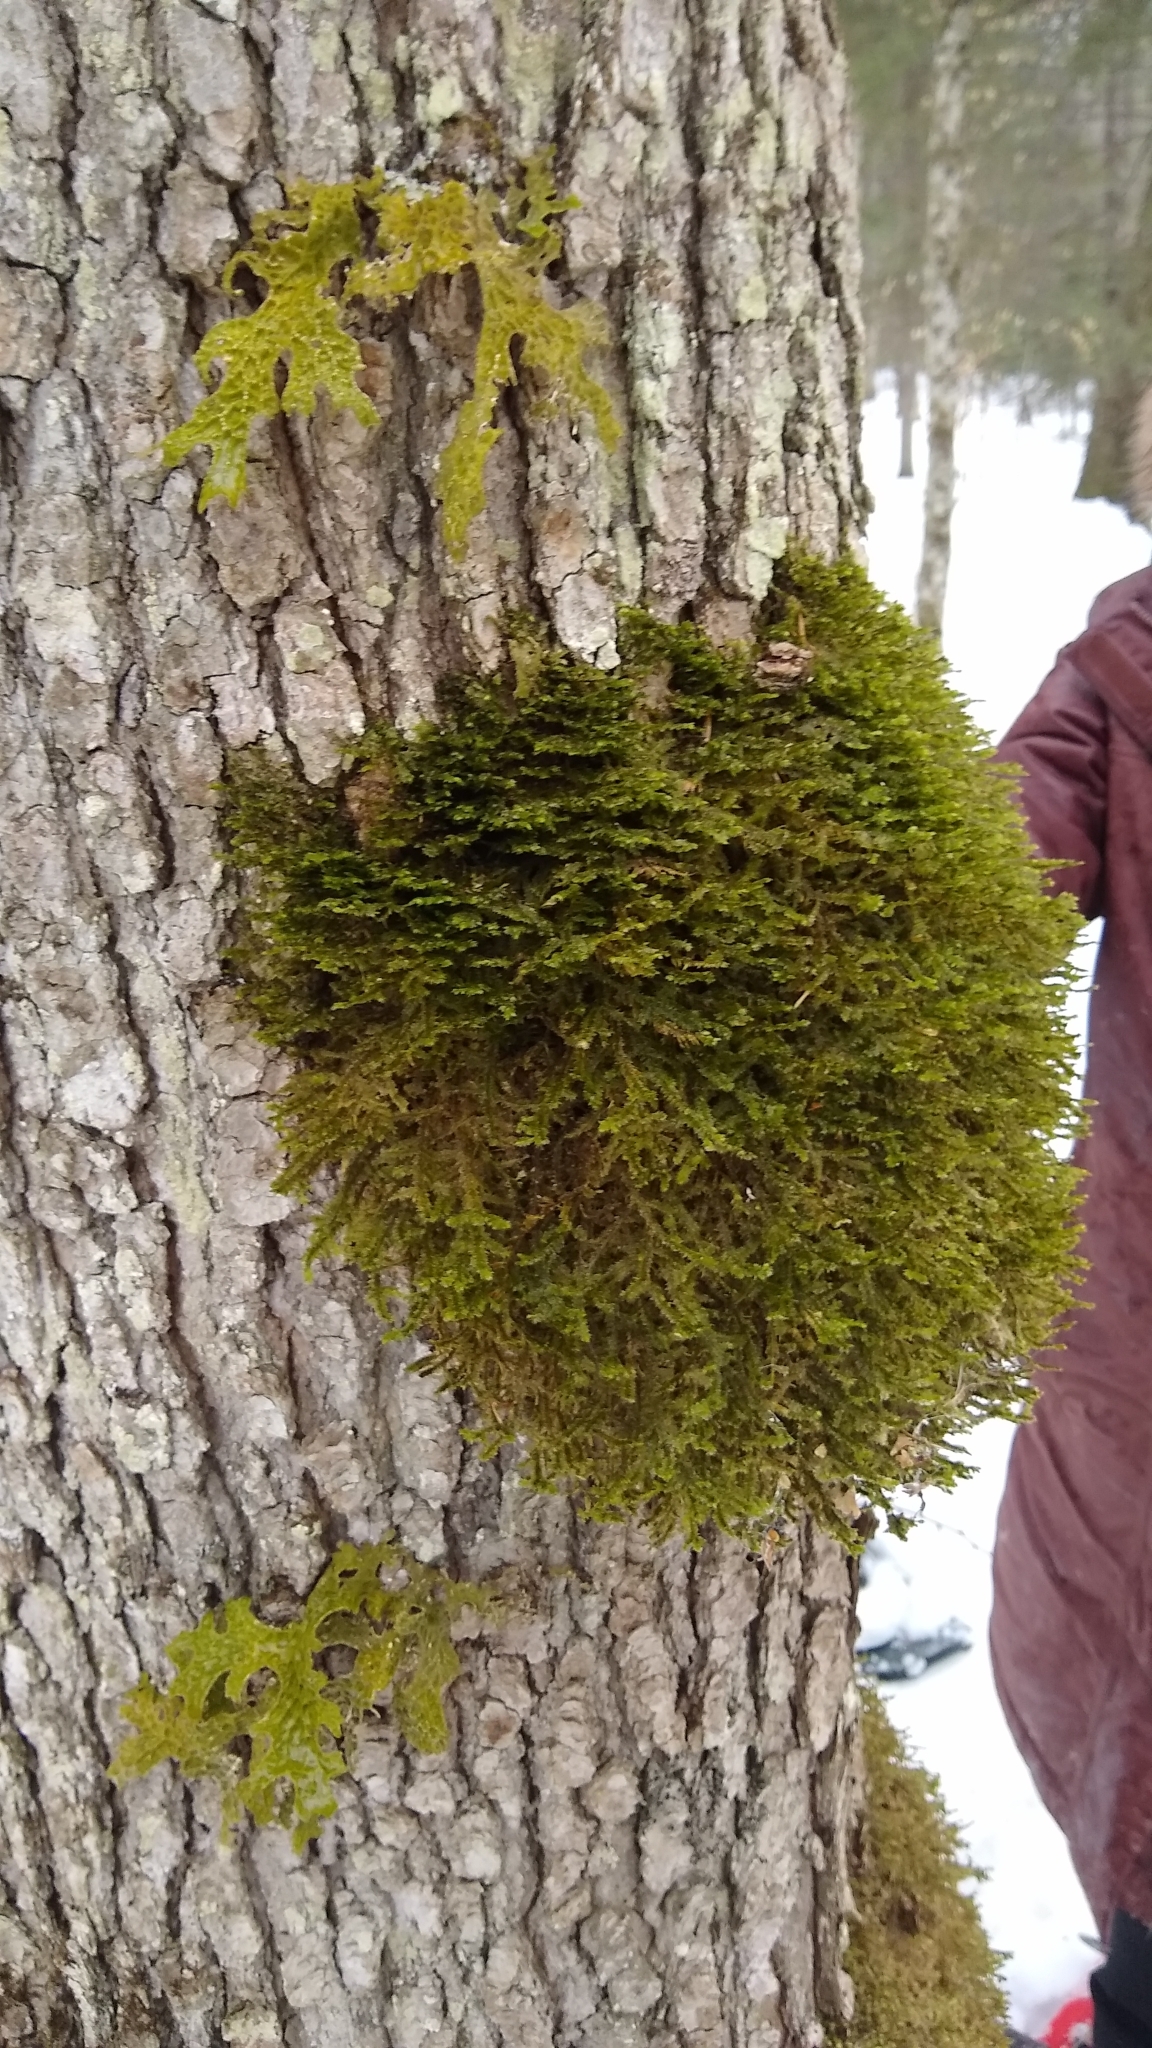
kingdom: Plantae
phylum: Bryophyta
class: Bryopsida
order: Hypnales
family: Neckeraceae
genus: Neckera
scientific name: Neckera pennata
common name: Feathery neckera
